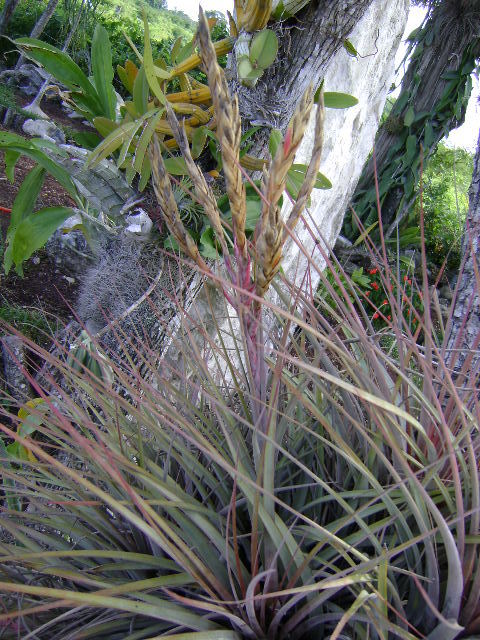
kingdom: Plantae
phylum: Tracheophyta
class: Liliopsida
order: Poales
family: Bromeliaceae
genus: Tillandsia
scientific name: Tillandsia inopinata
